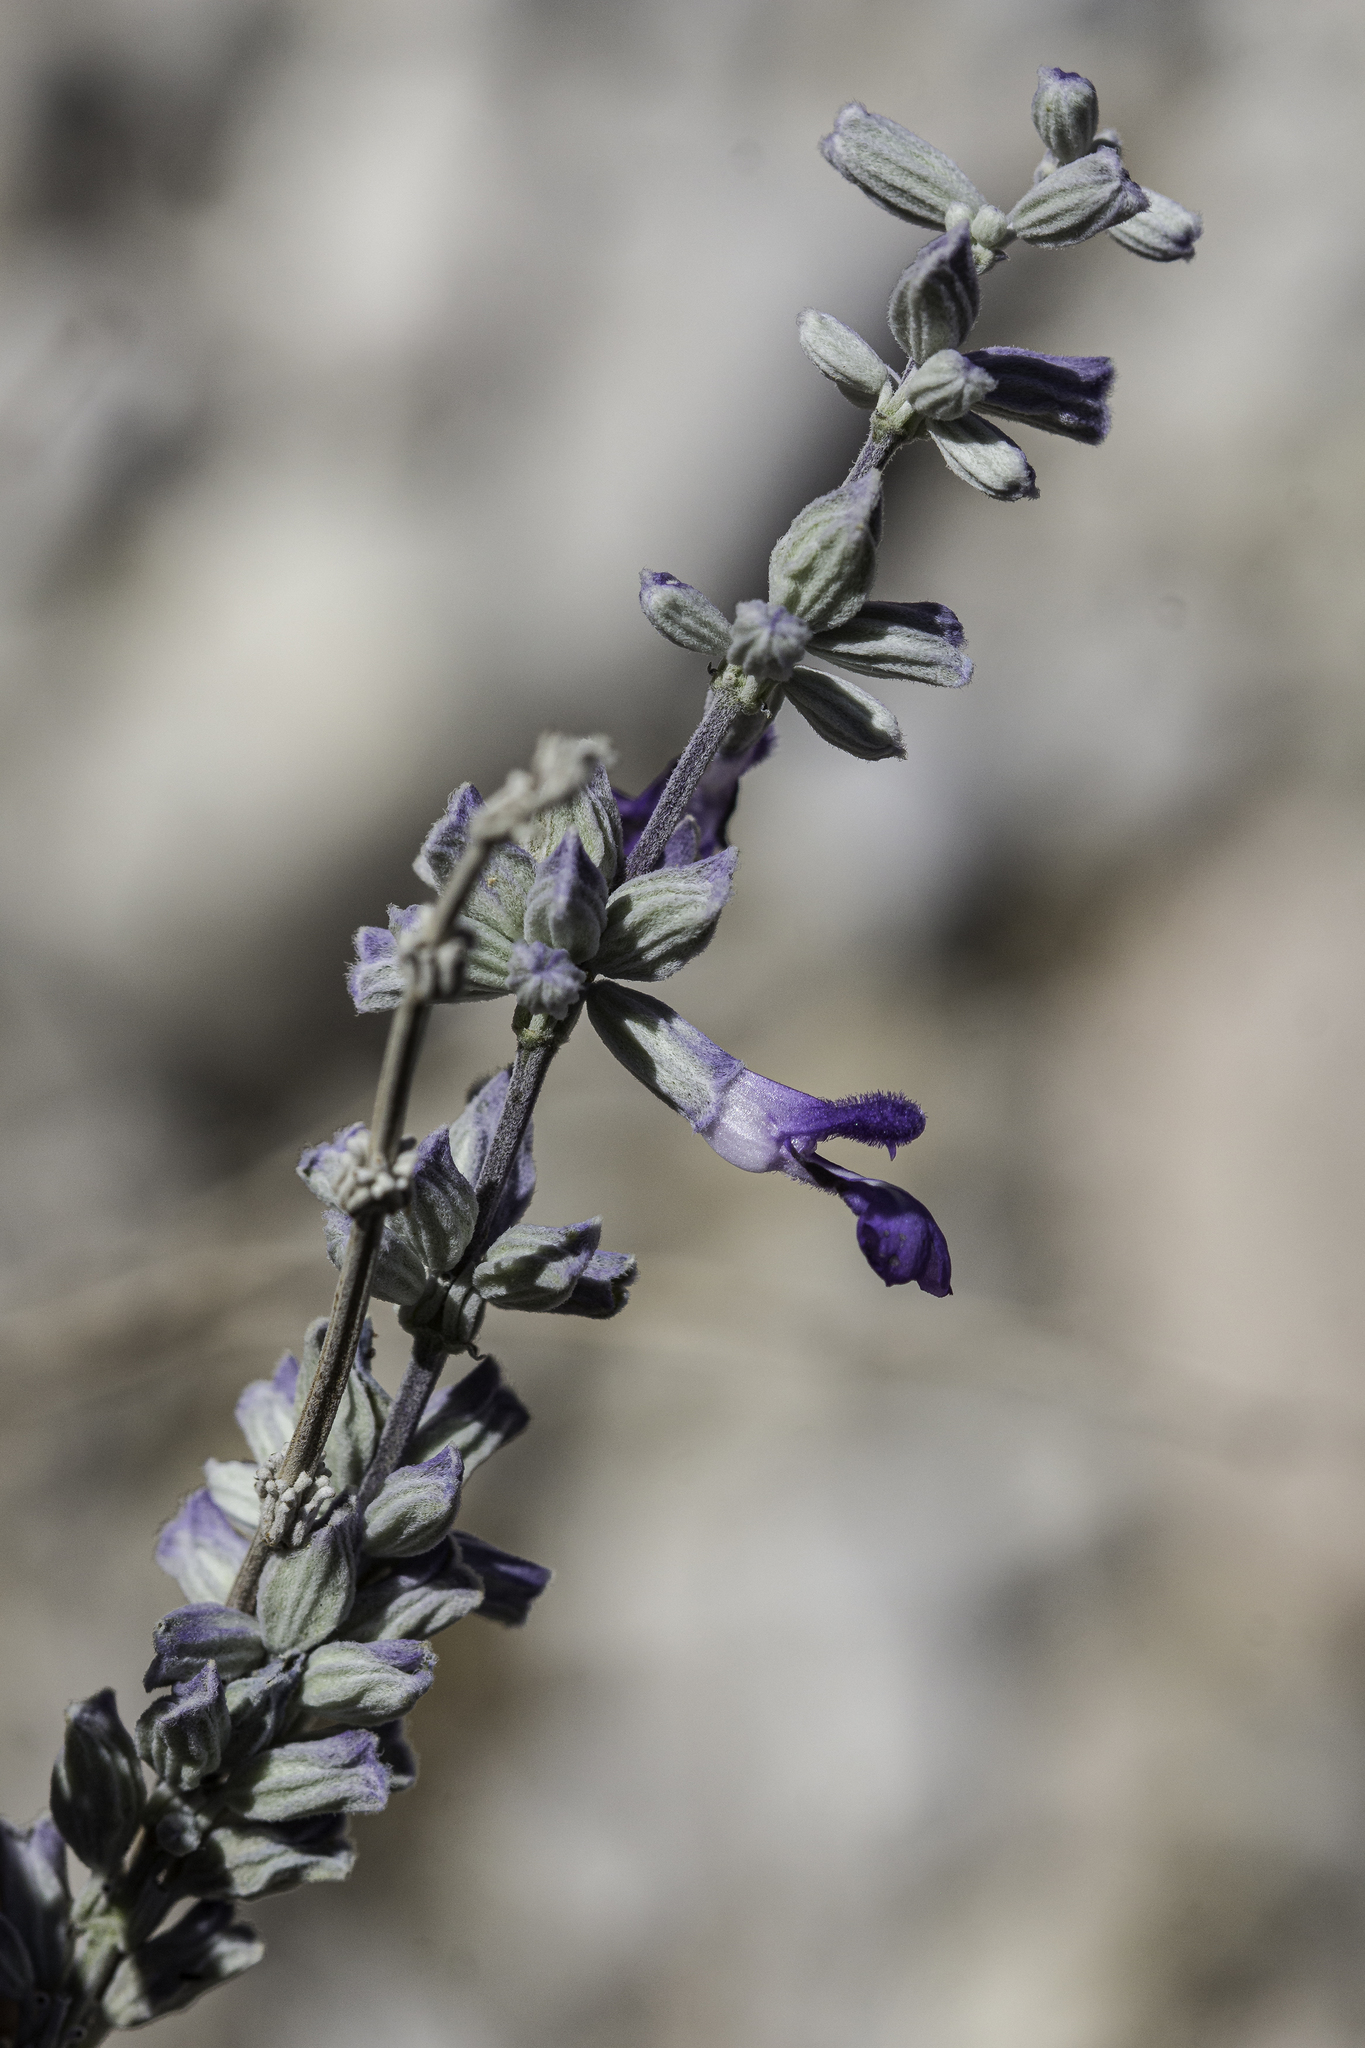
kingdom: Plantae
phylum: Tracheophyta
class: Magnoliopsida
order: Lamiales
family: Lamiaceae
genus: Salvia
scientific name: Salvia farinacea
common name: Mealy sage
